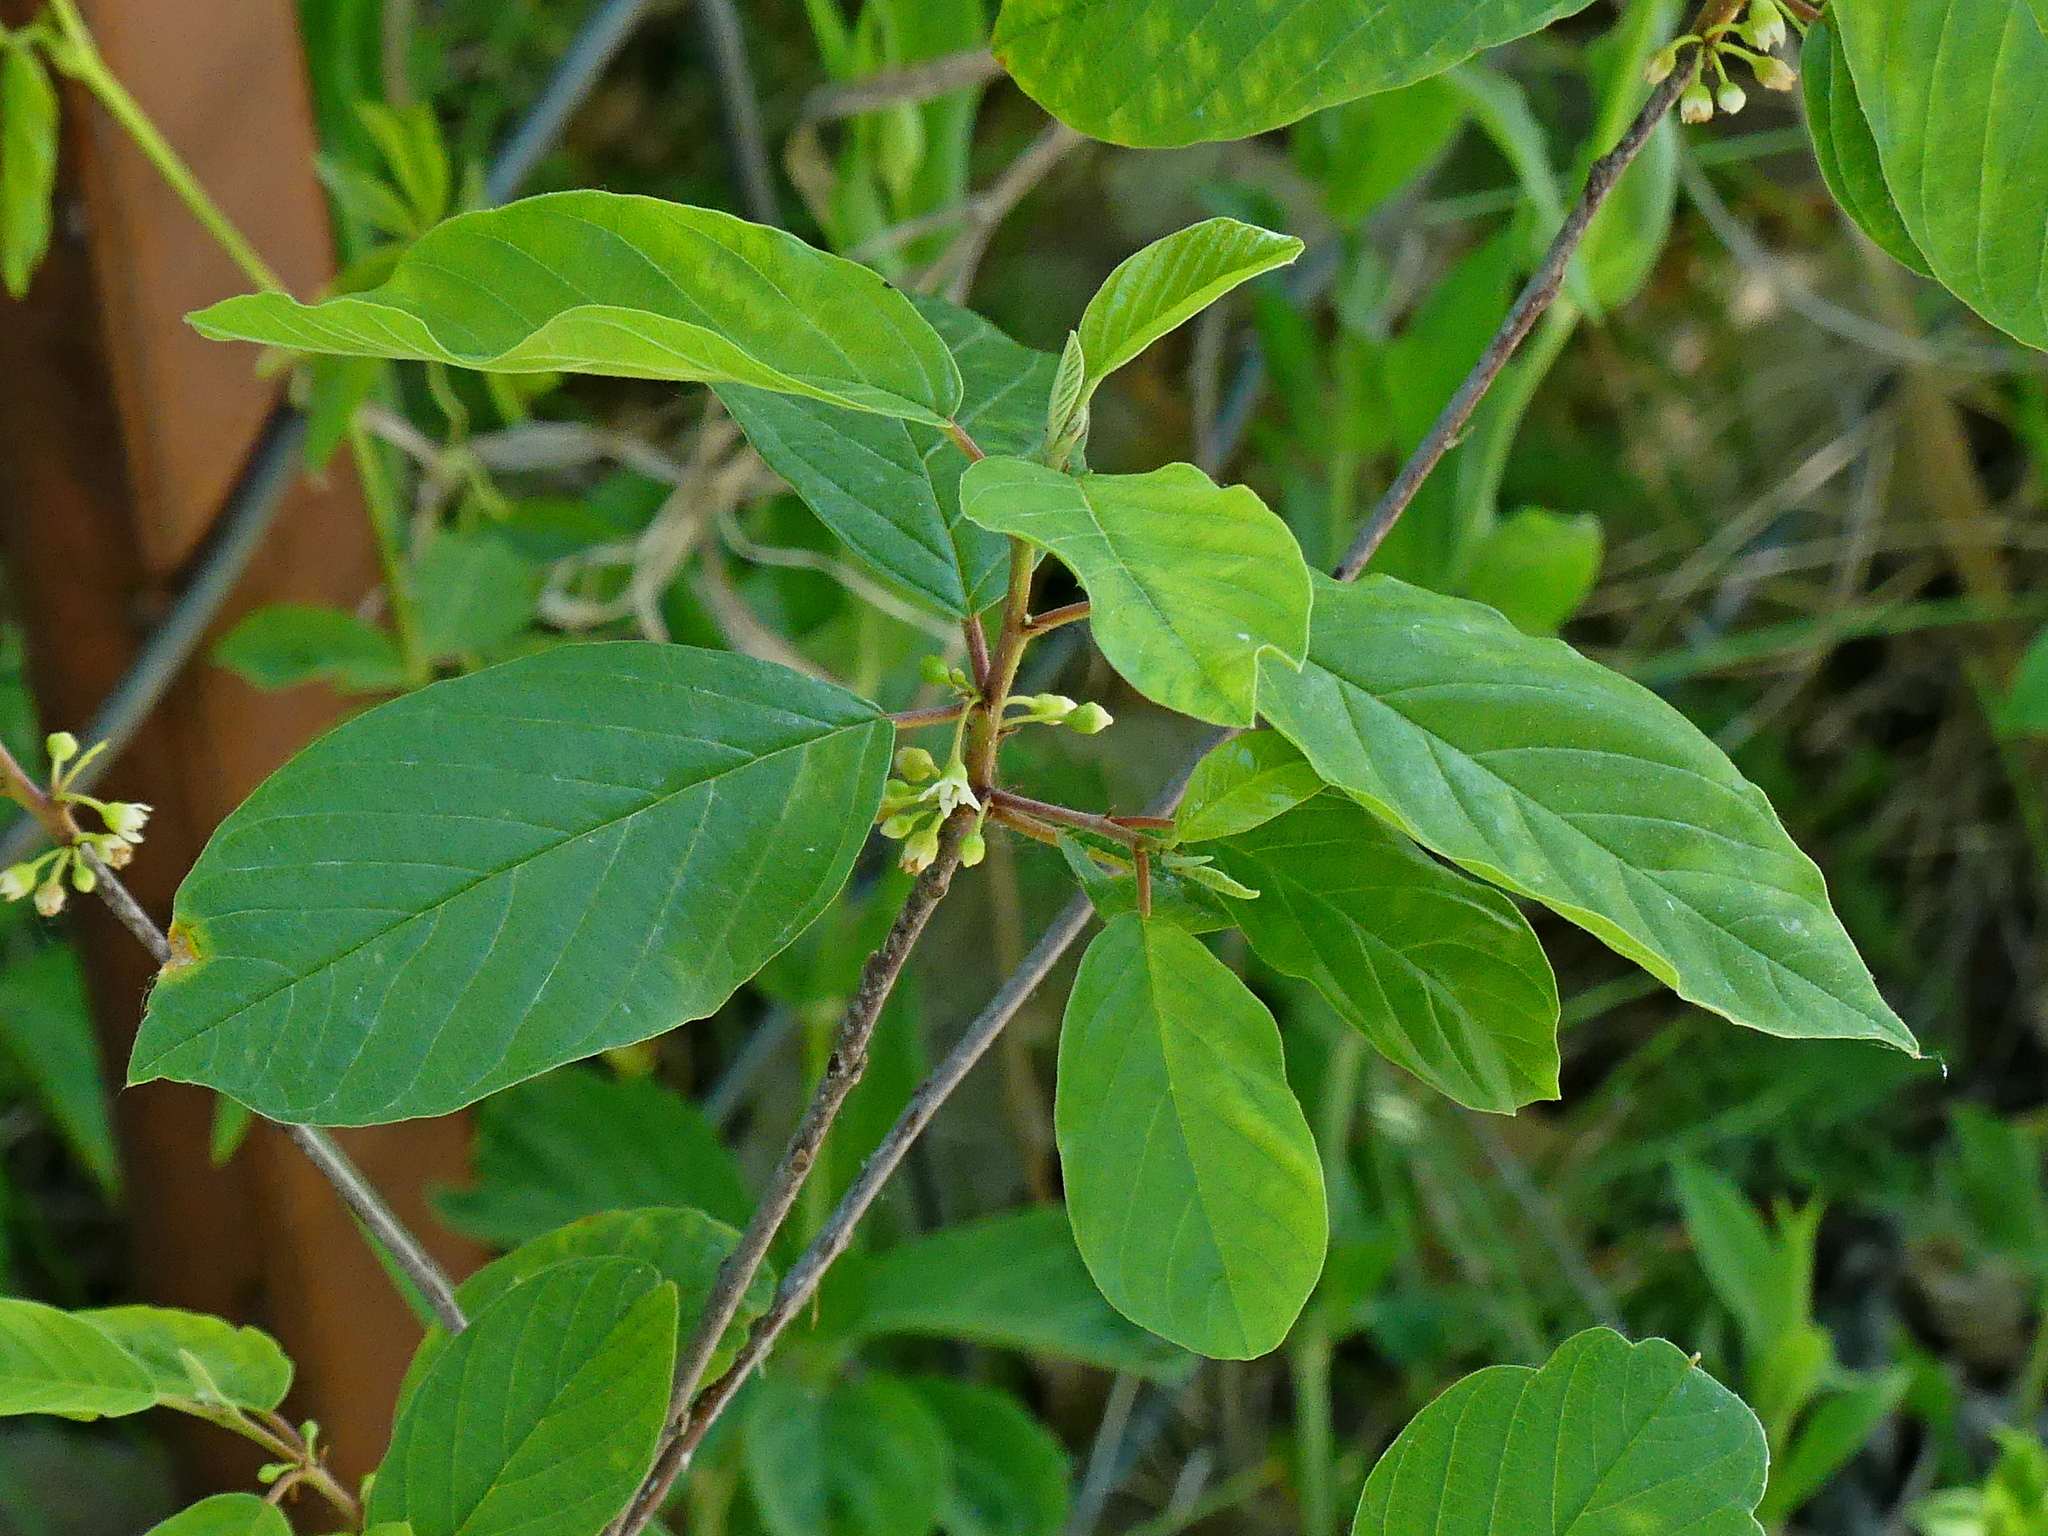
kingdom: Plantae
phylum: Tracheophyta
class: Magnoliopsida
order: Rosales
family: Rhamnaceae
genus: Frangula
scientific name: Frangula alnus
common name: Alder buckthorn
